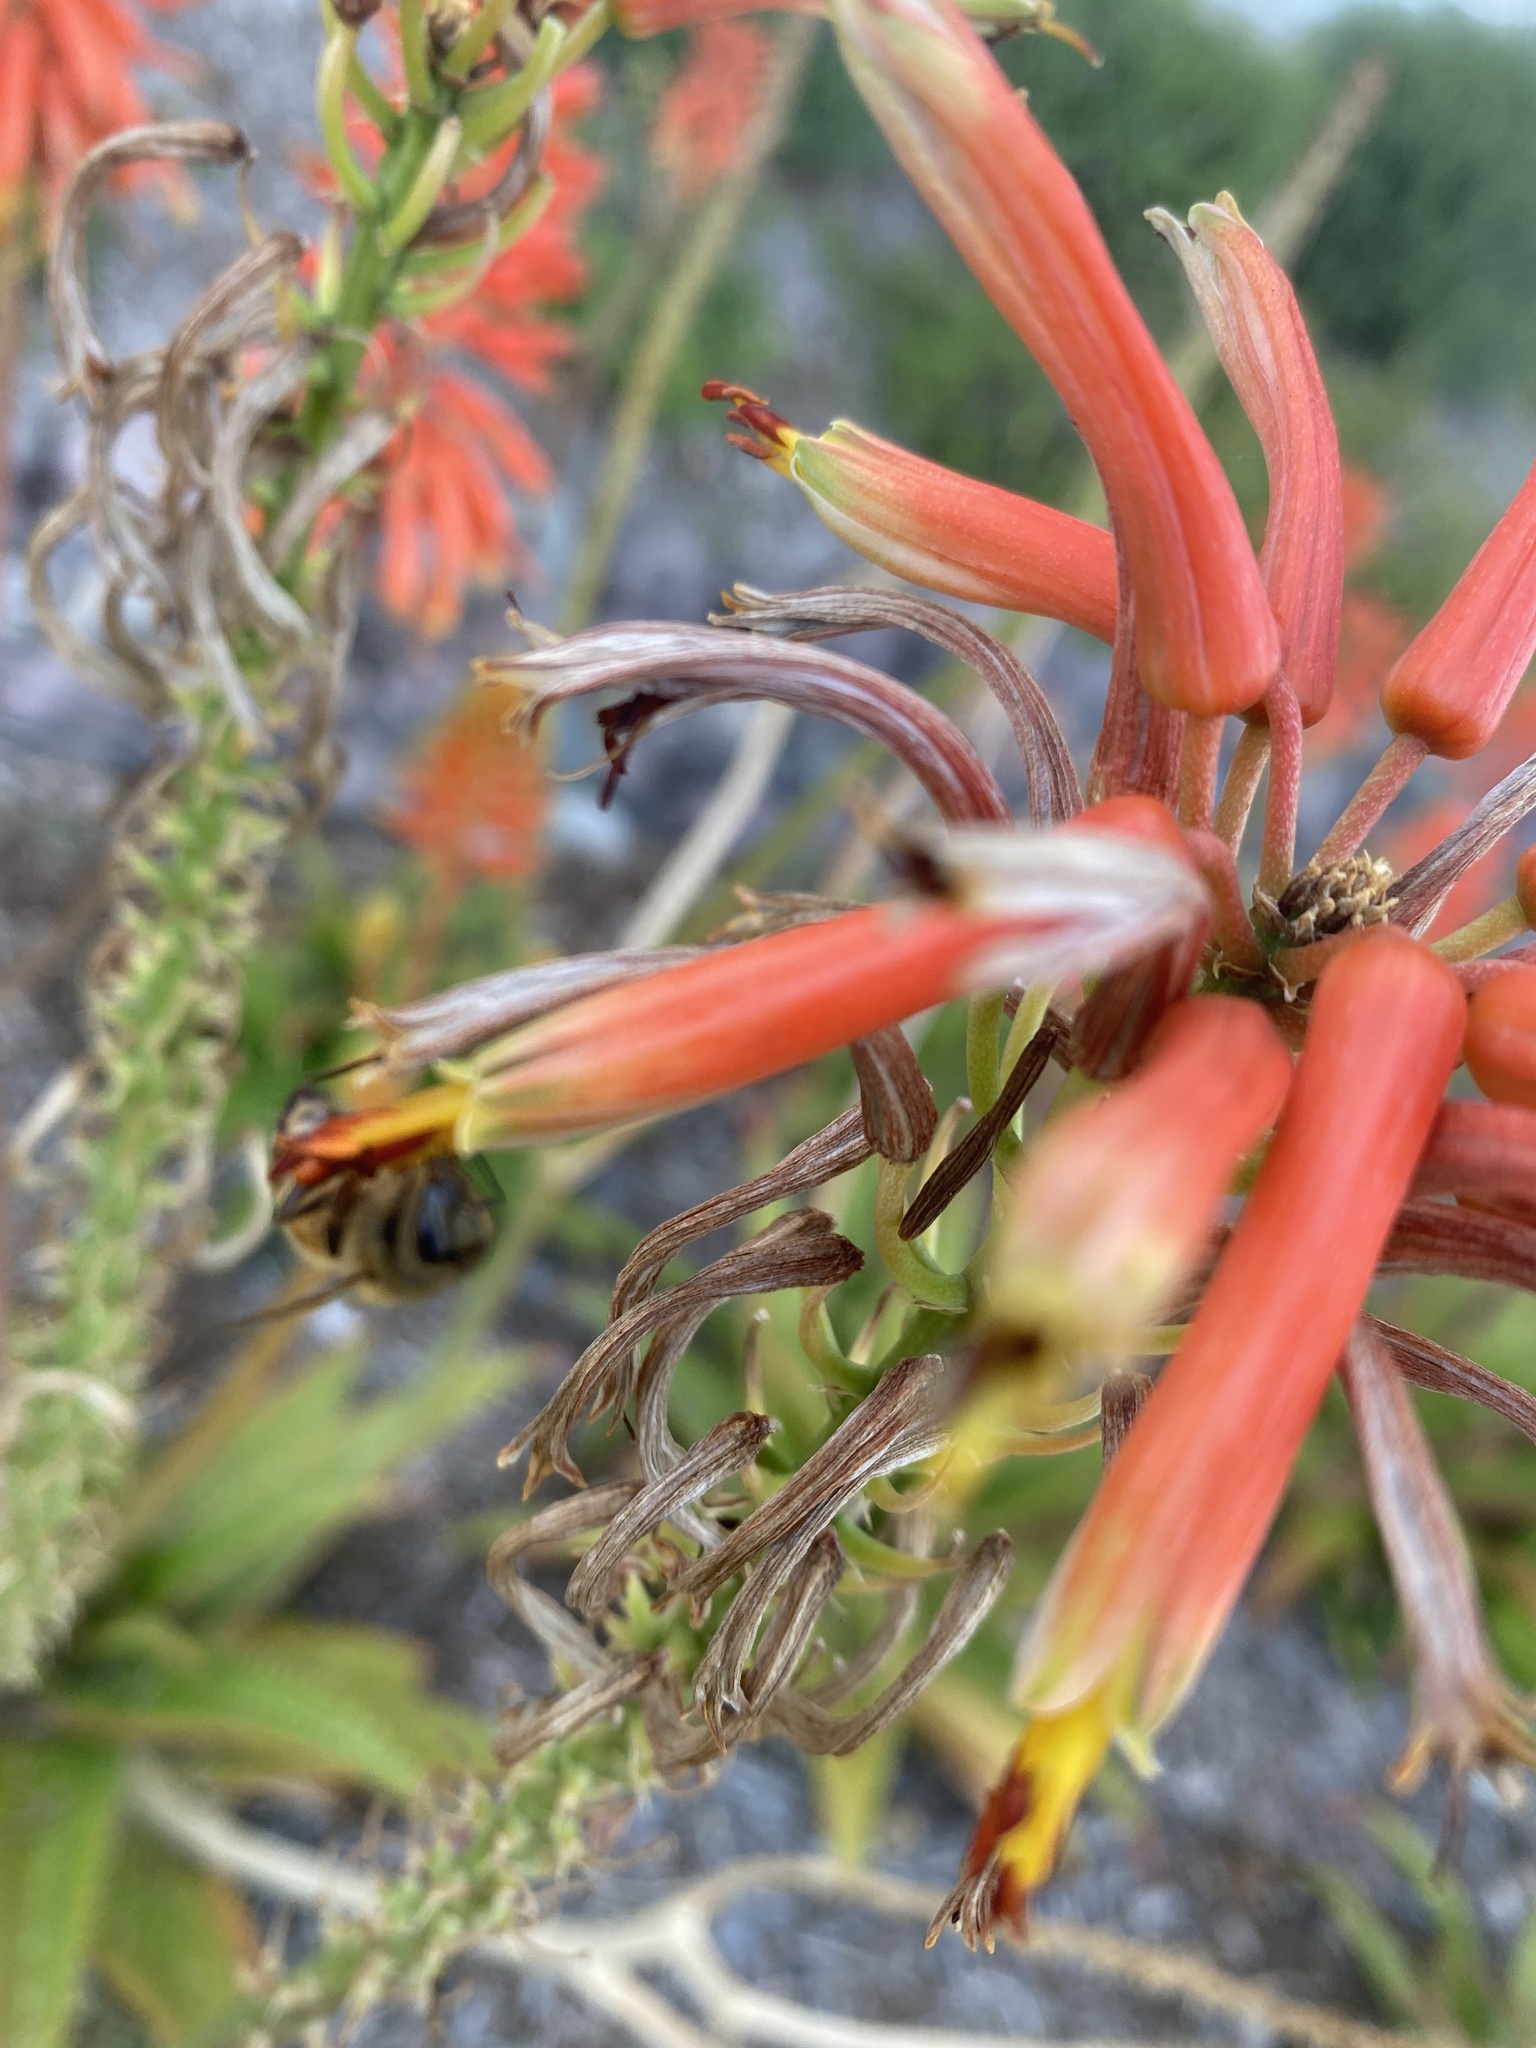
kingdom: Animalia
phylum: Arthropoda
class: Insecta
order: Hymenoptera
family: Apidae
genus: Apis
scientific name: Apis mellifera
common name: Honey bee
